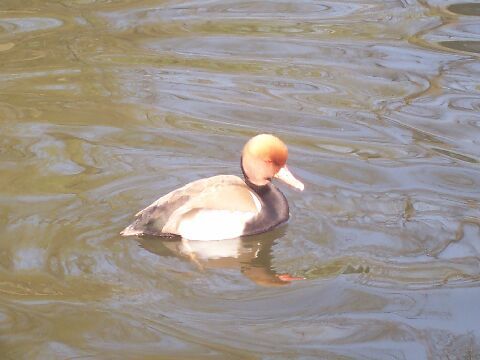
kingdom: Animalia
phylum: Chordata
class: Aves
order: Anseriformes
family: Anatidae
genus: Netta
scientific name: Netta rufina
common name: Red-crested pochard
